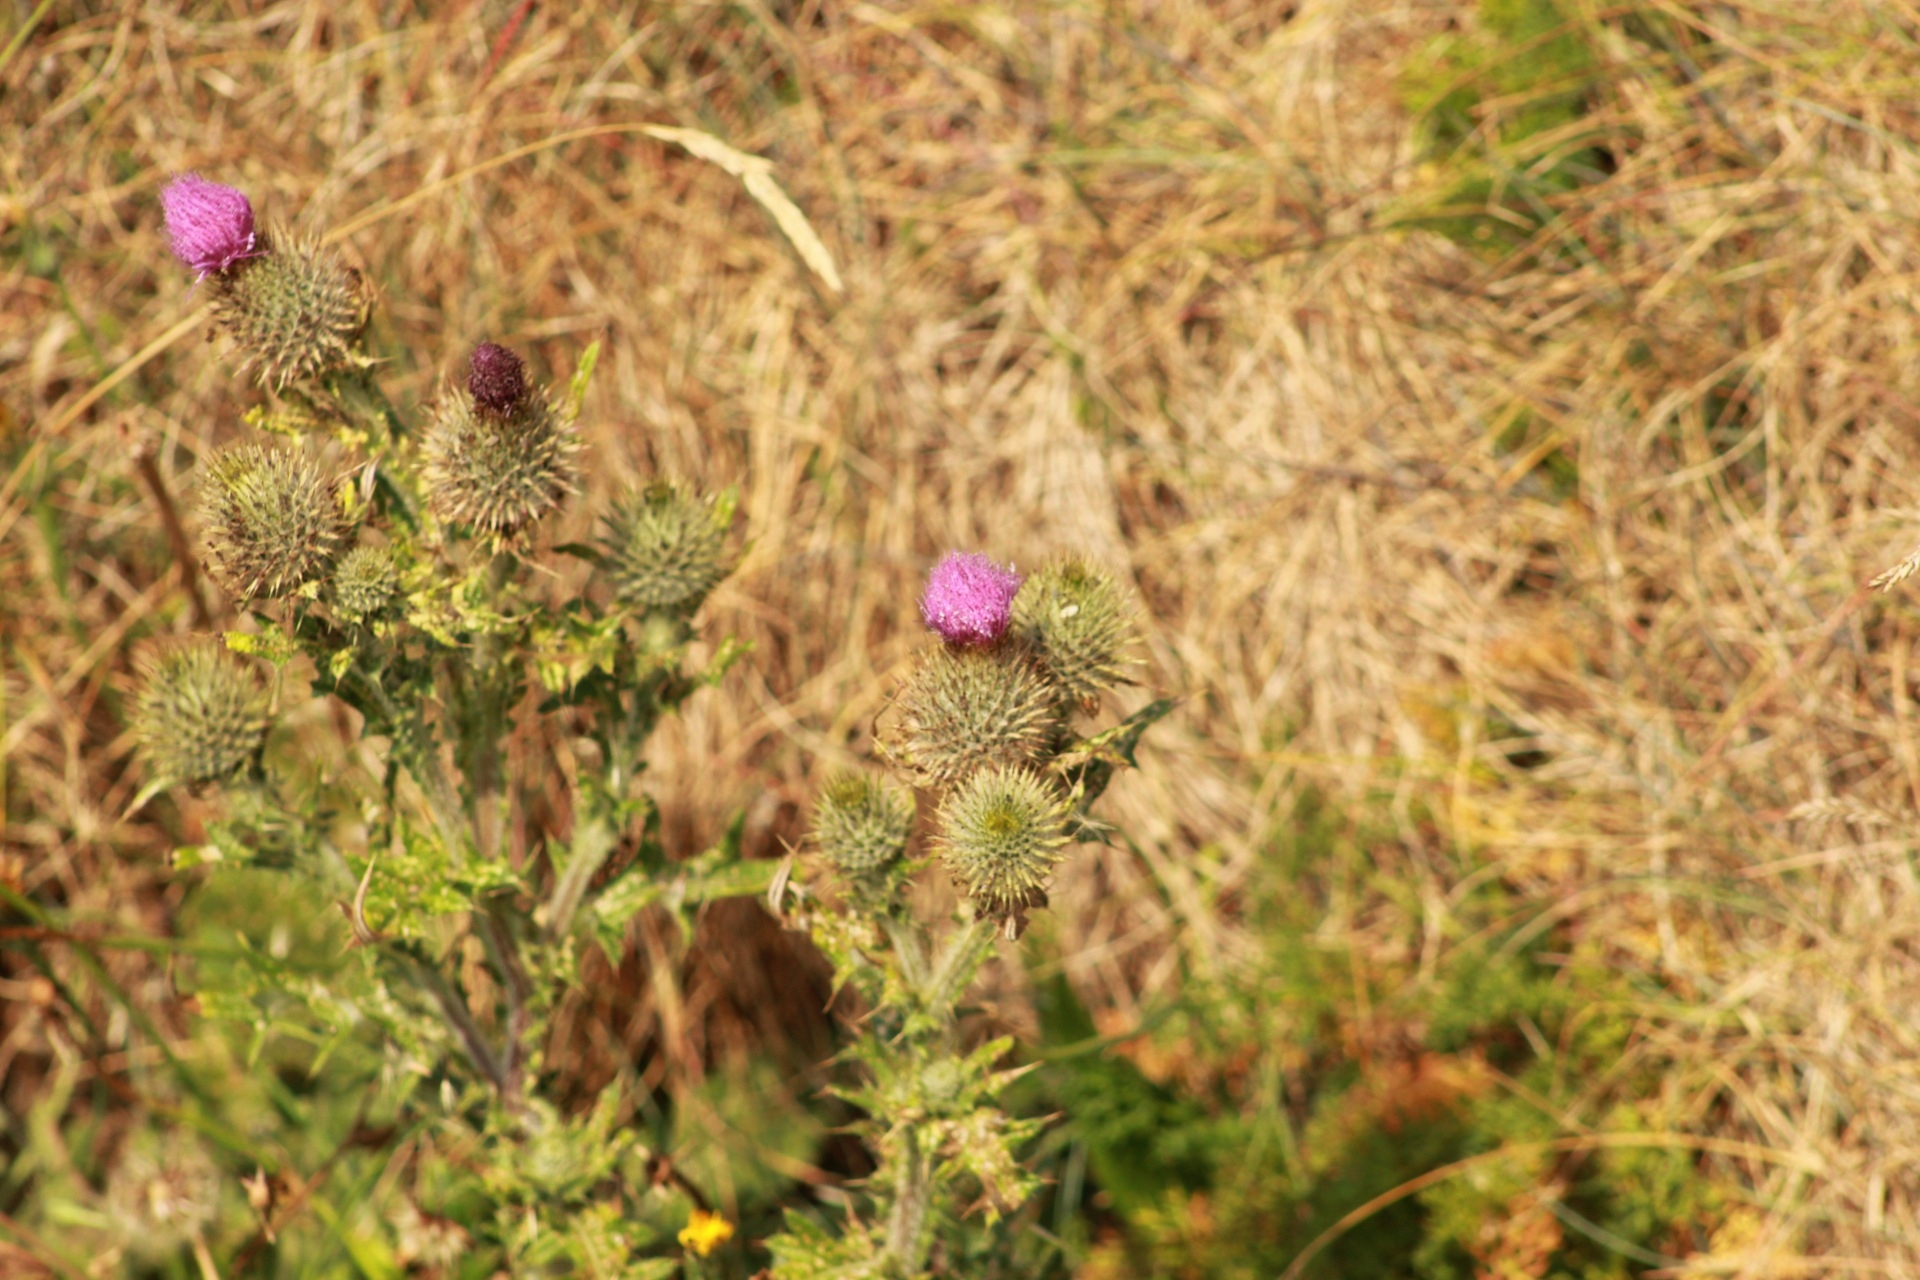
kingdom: Plantae
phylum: Tracheophyta
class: Magnoliopsida
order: Asterales
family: Asteraceae
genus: Cirsium
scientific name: Cirsium vulgare
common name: Bull thistle
